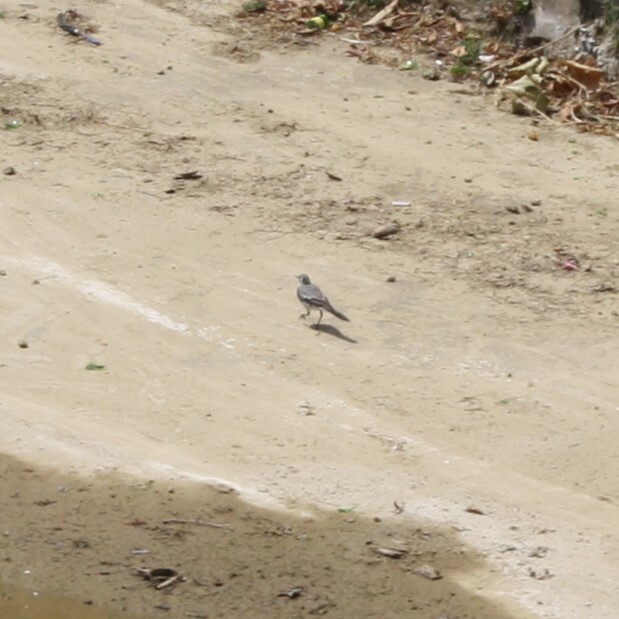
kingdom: Animalia
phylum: Chordata
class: Aves
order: Passeriformes
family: Motacillidae
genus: Motacilla
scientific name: Motacilla alba
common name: White wagtail
